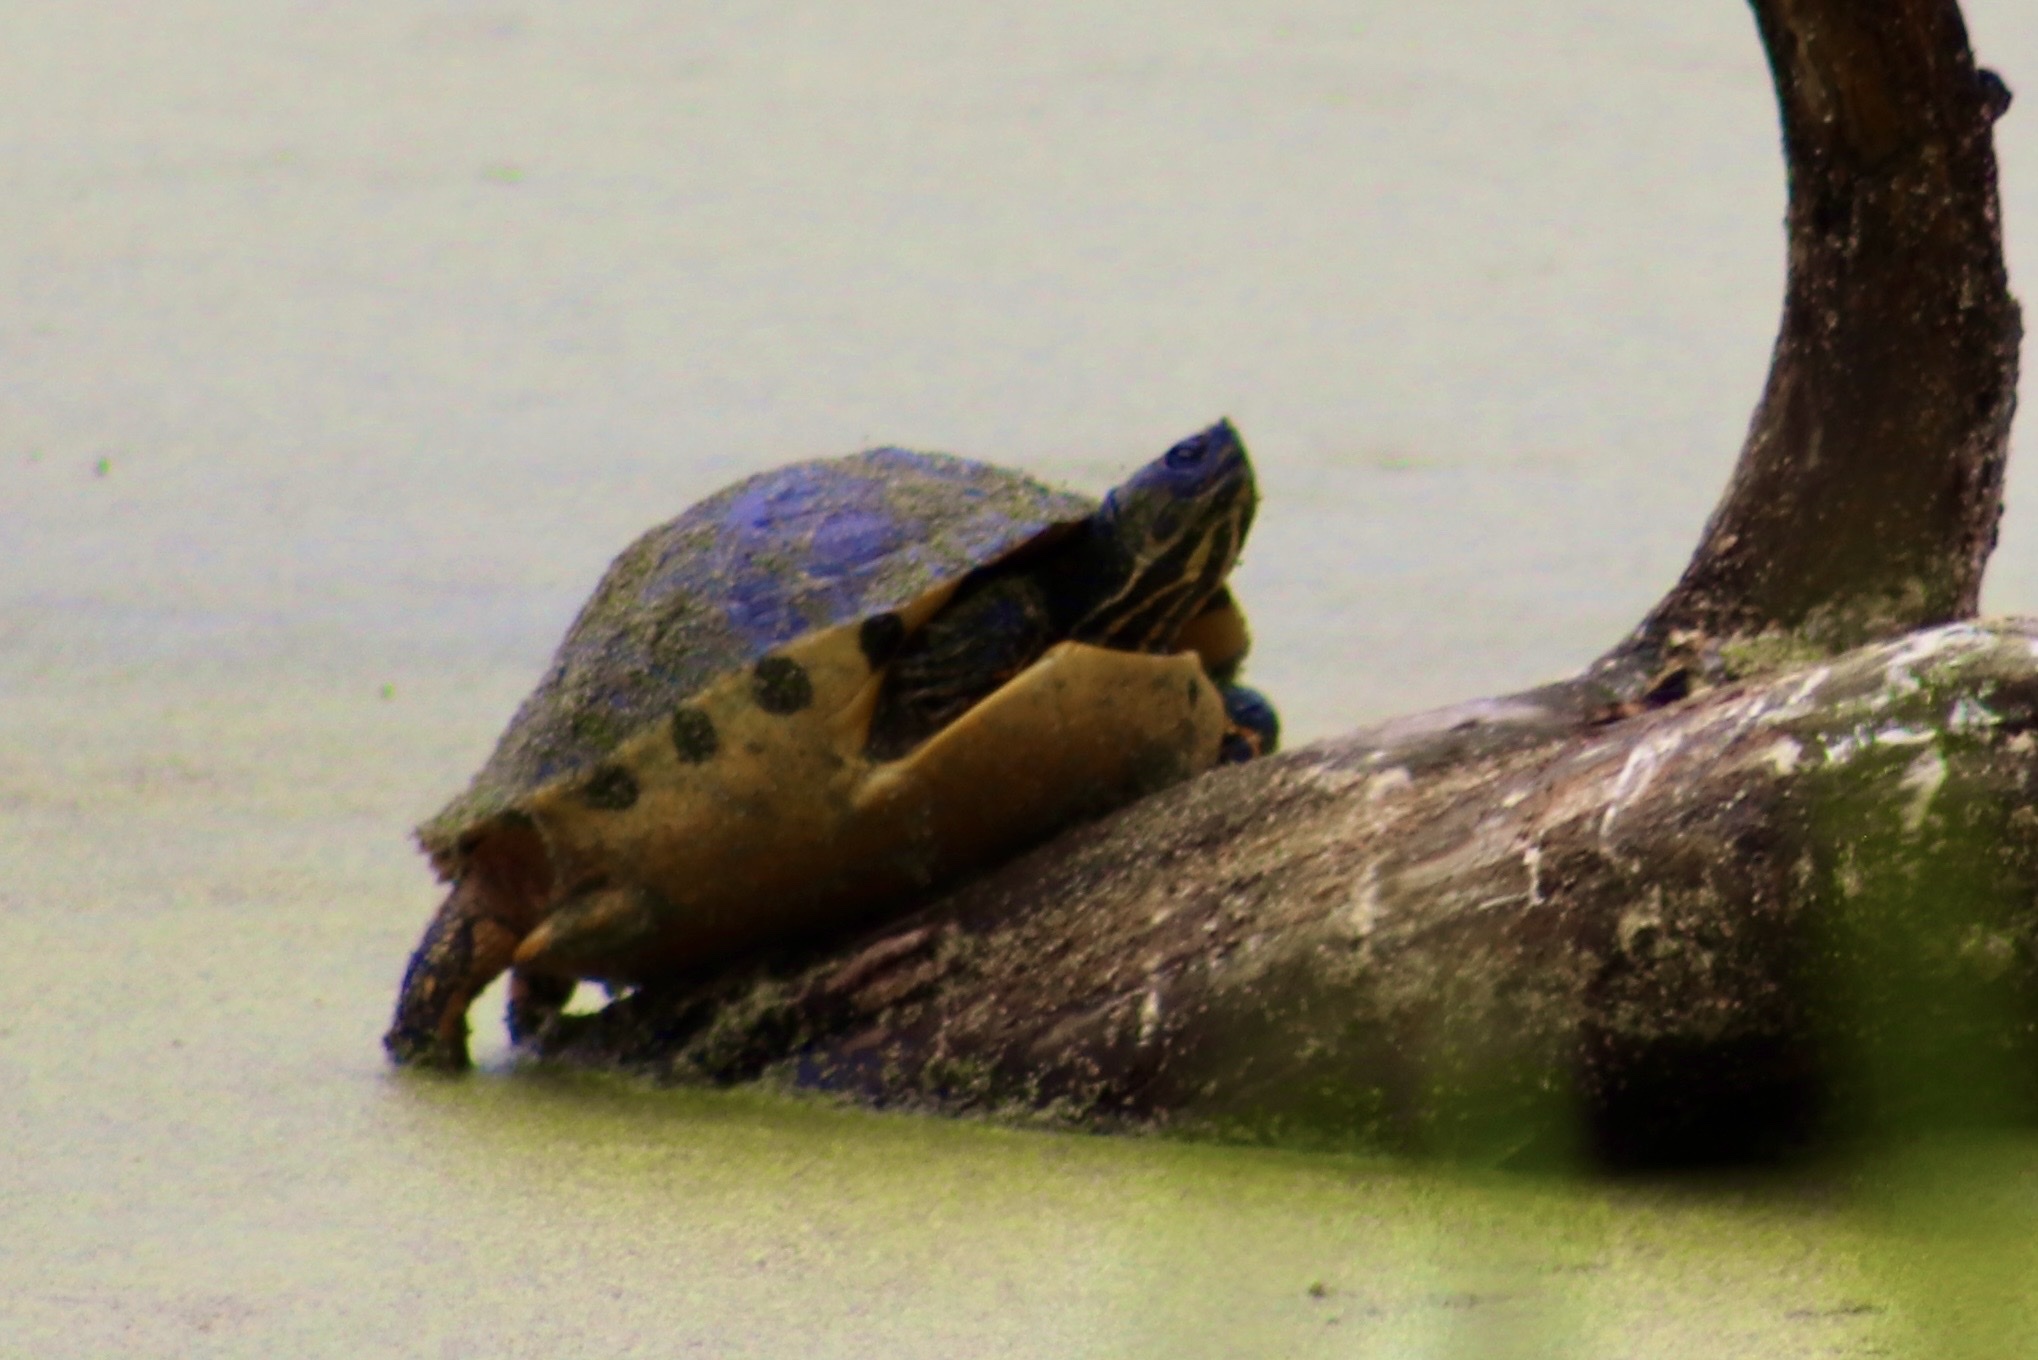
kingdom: Animalia
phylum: Chordata
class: Testudines
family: Emydidae
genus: Trachemys
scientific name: Trachemys scripta
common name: Slider
